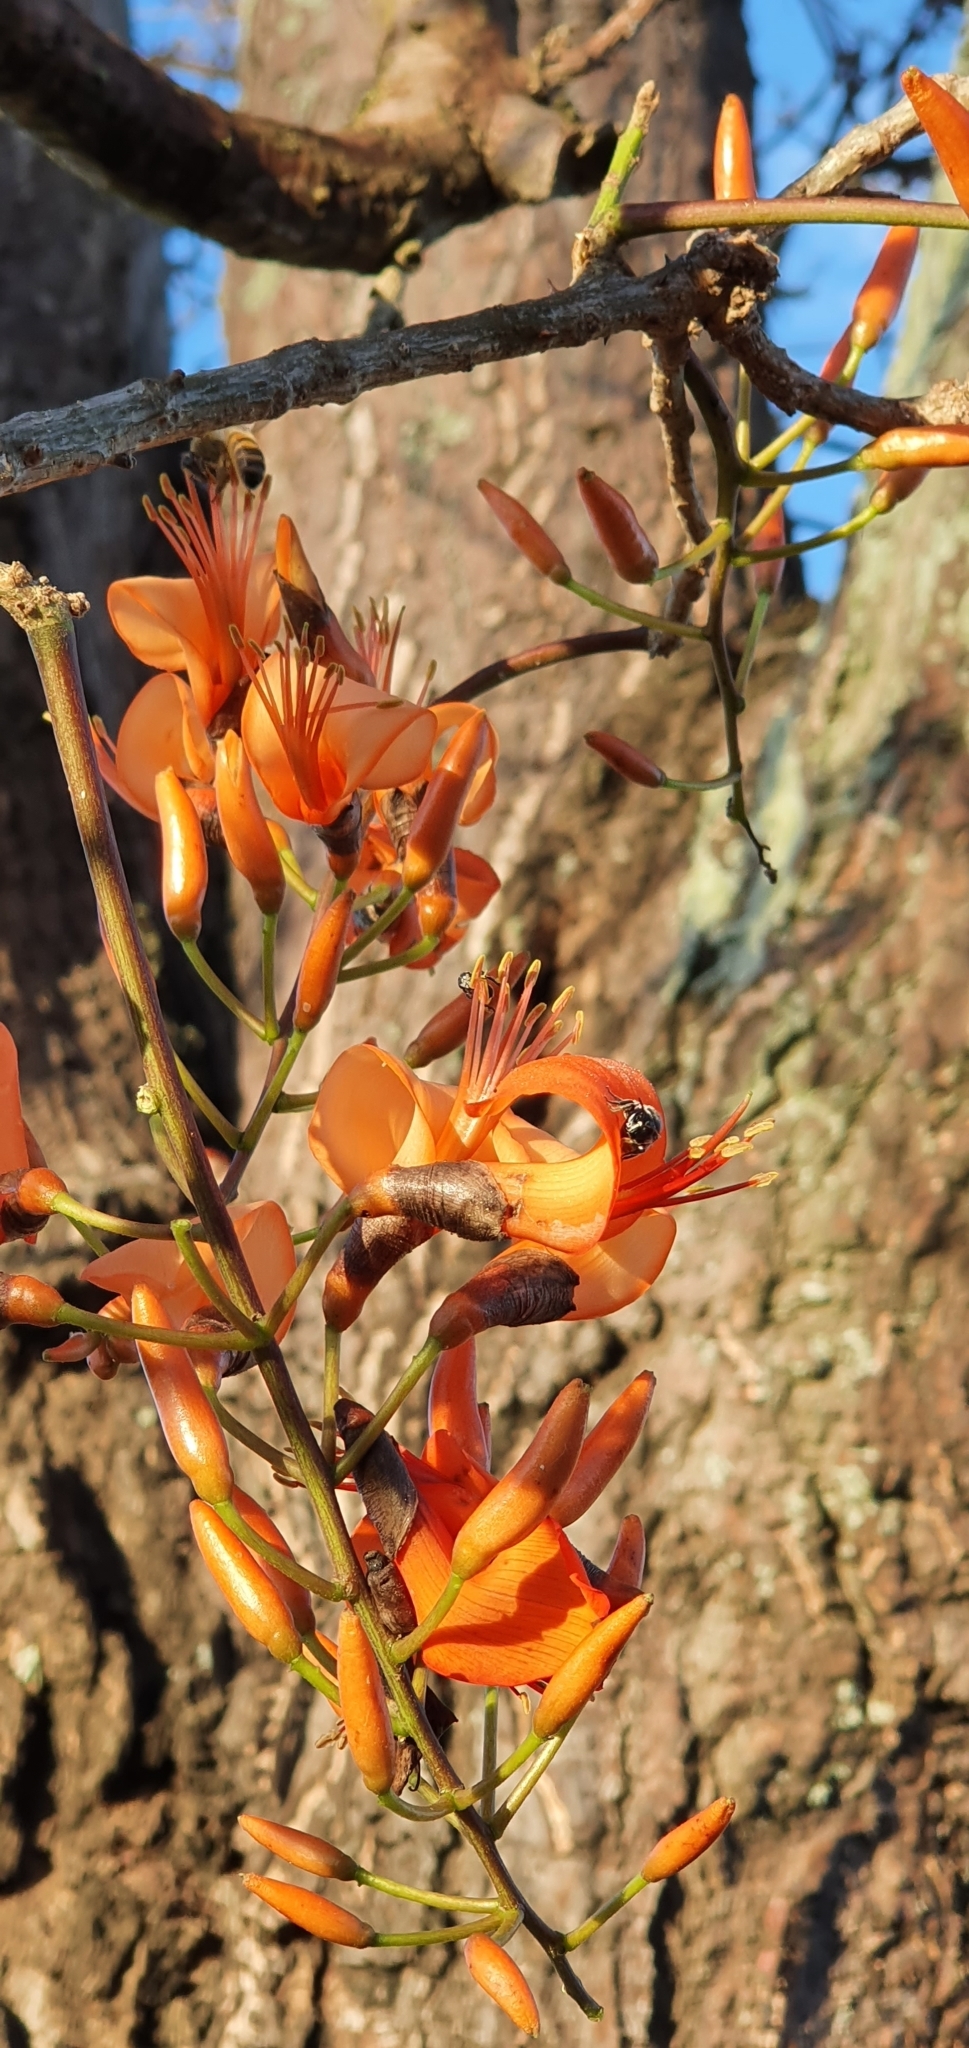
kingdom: Plantae
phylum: Tracheophyta
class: Magnoliopsida
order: Fabales
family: Fabaceae
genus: Erythrina
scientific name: Erythrina vespertilio
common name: Bat-wing coral tree
